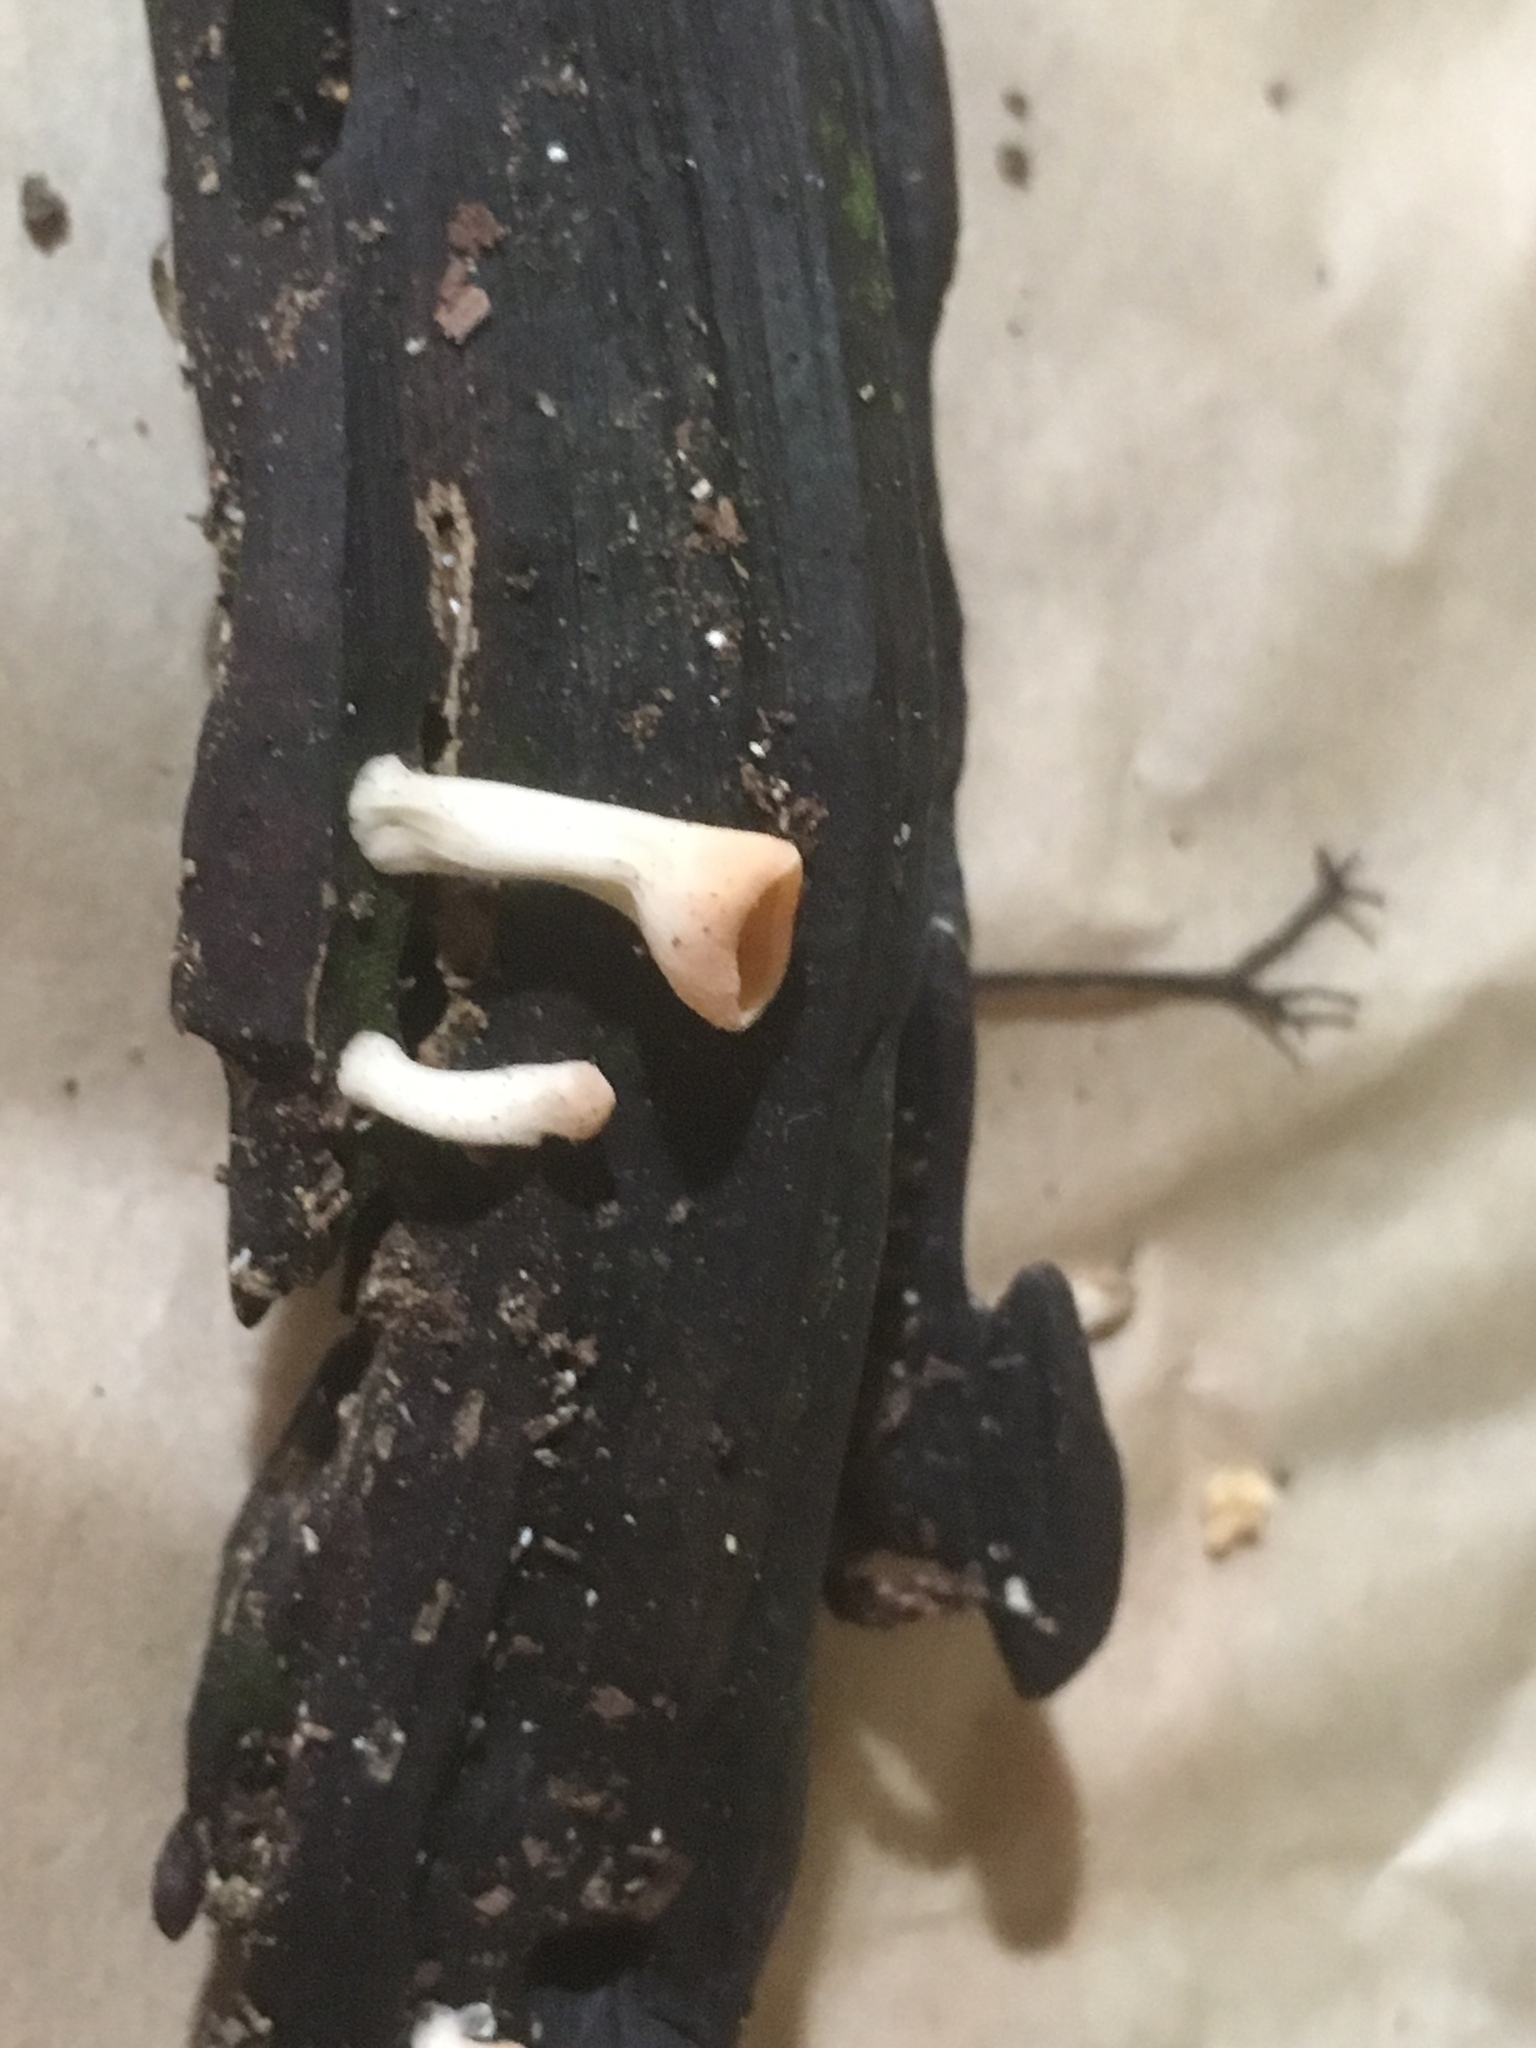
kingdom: Fungi
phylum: Ascomycota
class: Pezizomycetes
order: Pezizales
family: Sarcoscyphaceae
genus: Cookeina
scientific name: Cookeina colensoi
